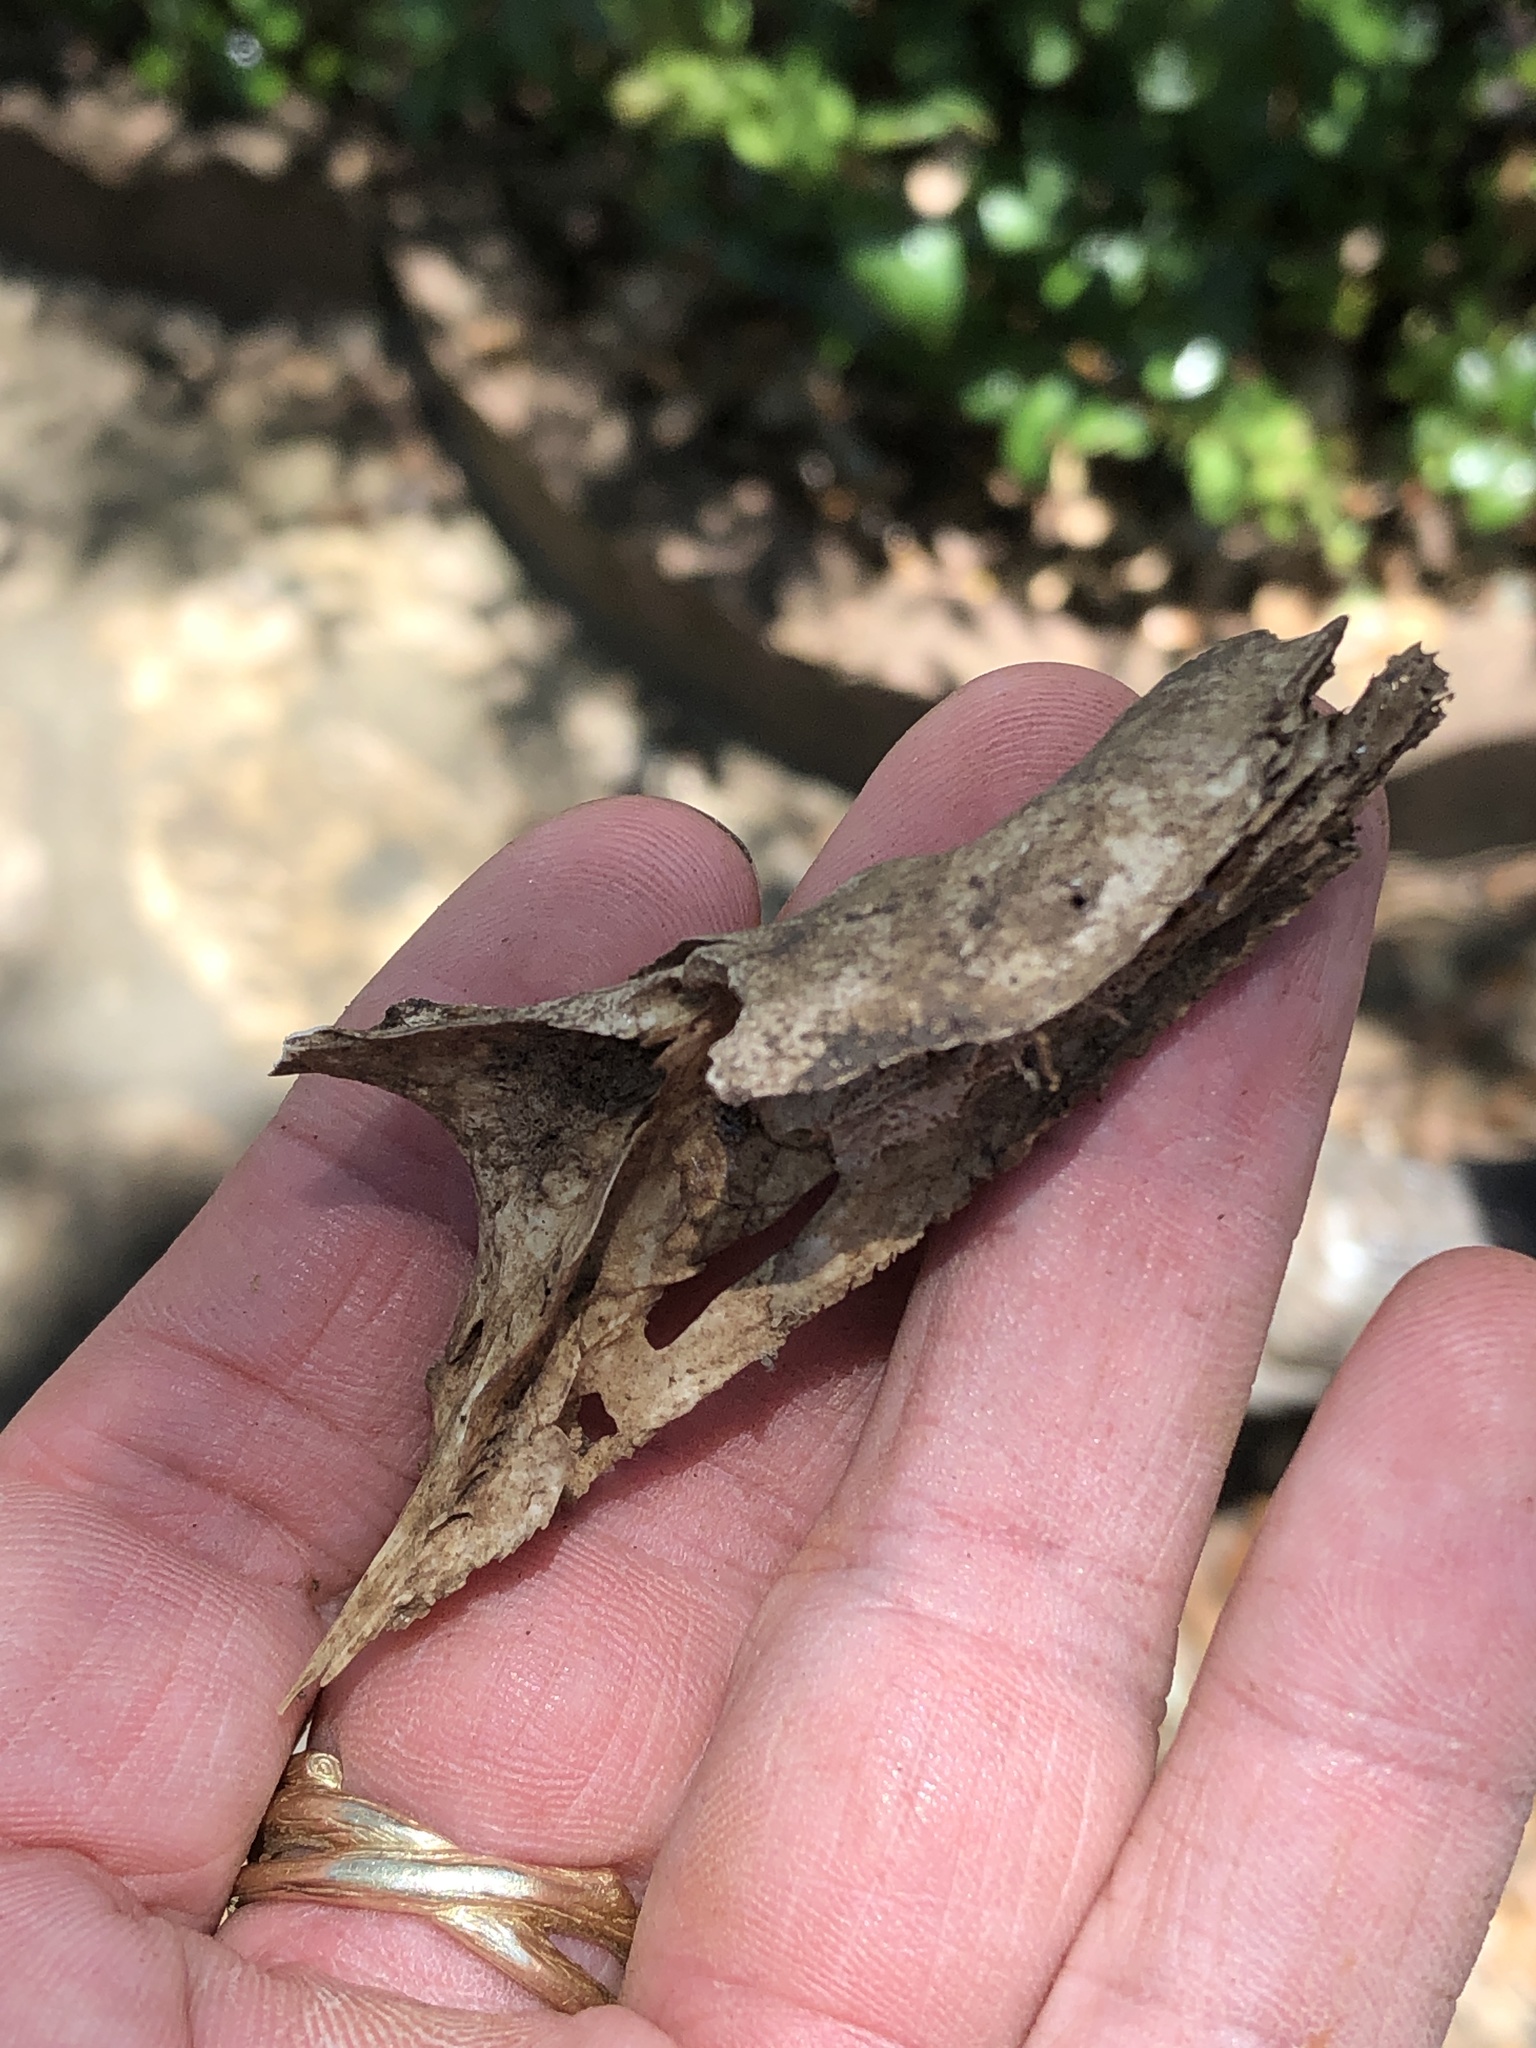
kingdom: Animalia
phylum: Chordata
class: Mammalia
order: Didelphimorphia
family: Didelphidae
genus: Didelphis
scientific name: Didelphis virginiana
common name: Virginia opossum
